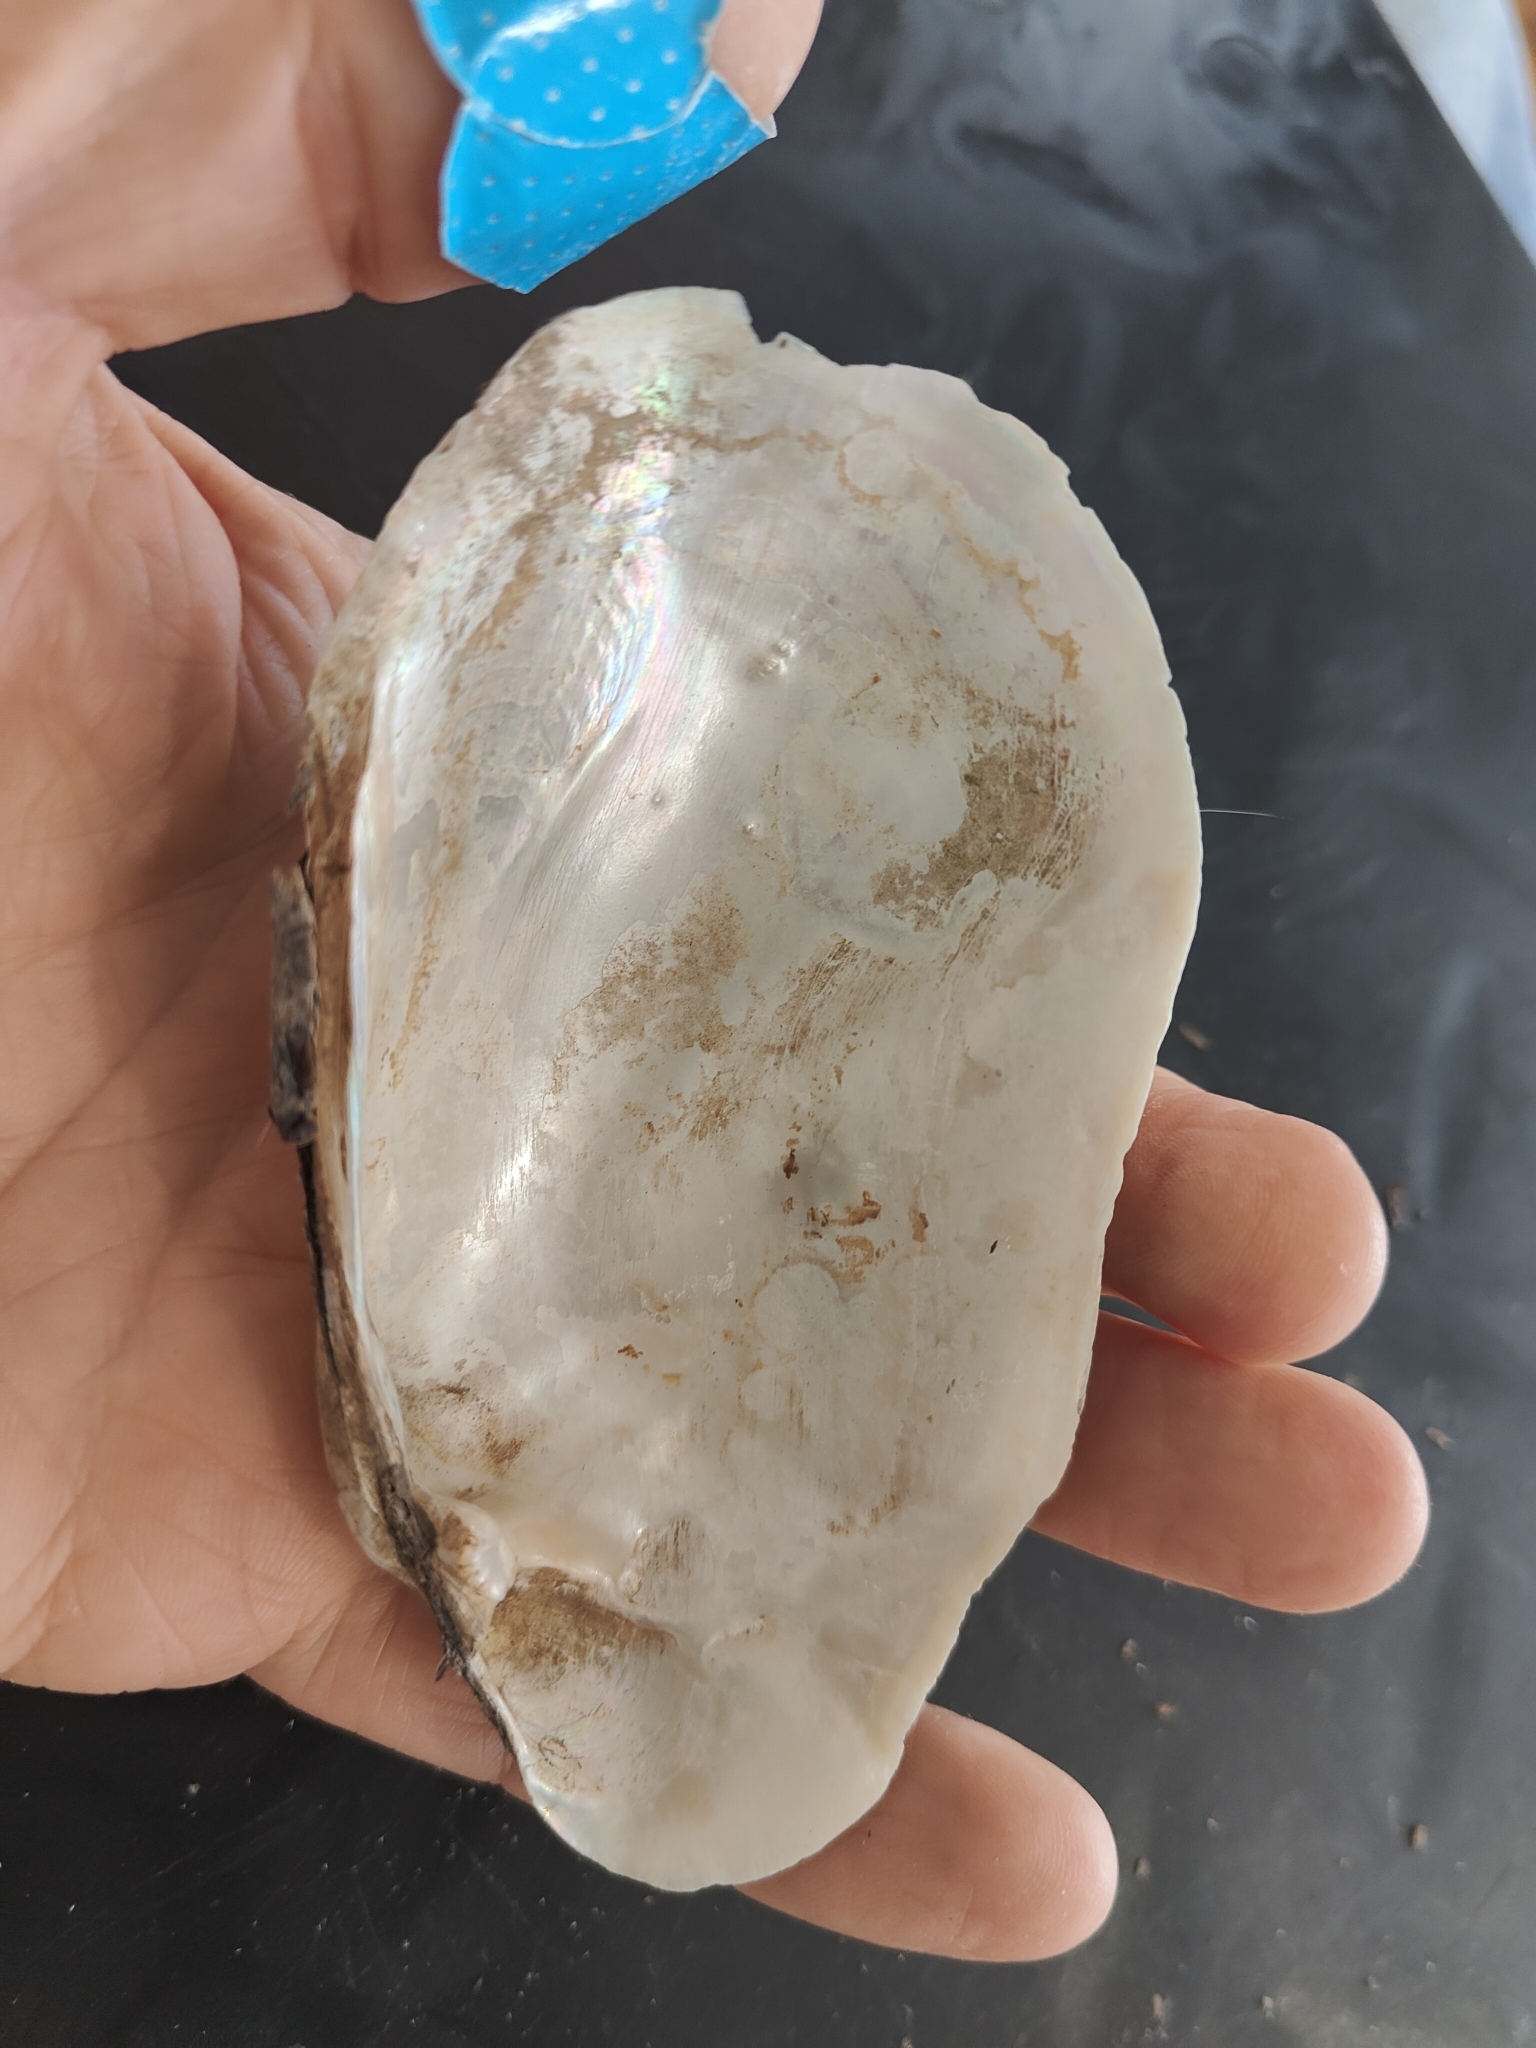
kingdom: Animalia
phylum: Mollusca
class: Bivalvia
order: Unionida
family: Unionidae
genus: Lampsilis
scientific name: Lampsilis siliquoidea
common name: Fatmucket
